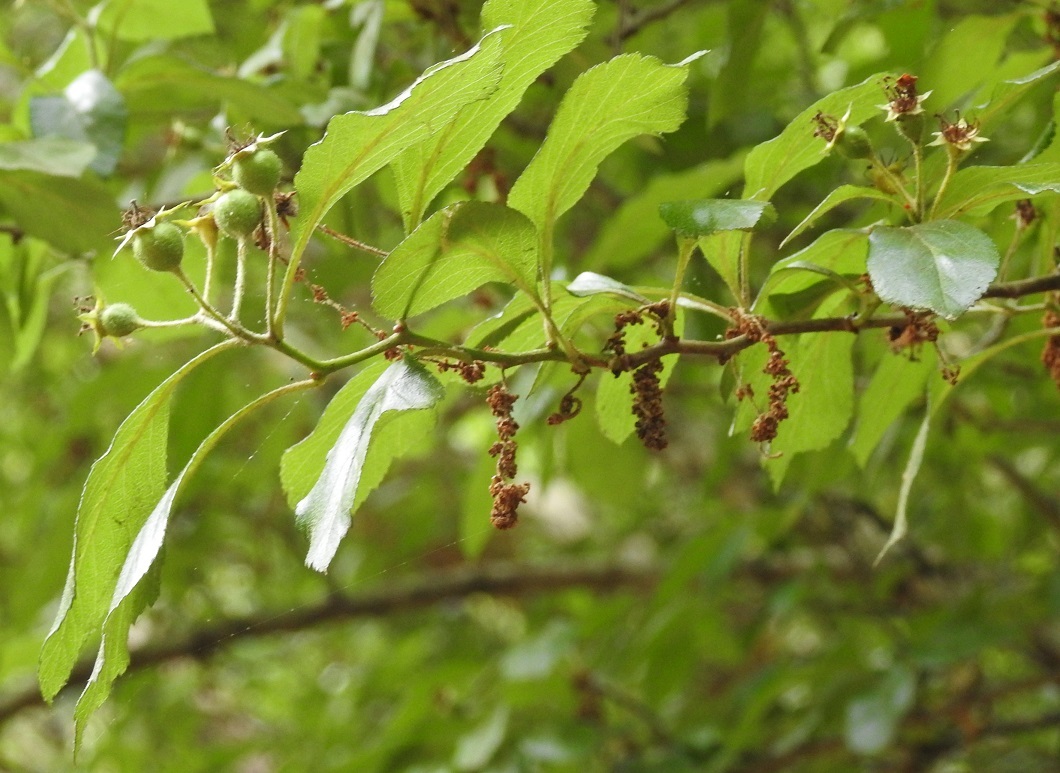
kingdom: Plantae
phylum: Tracheophyta
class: Magnoliopsida
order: Rosales
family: Rosaceae
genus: Crataegus
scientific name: Crataegus mexicana
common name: Mexican hawthorn
